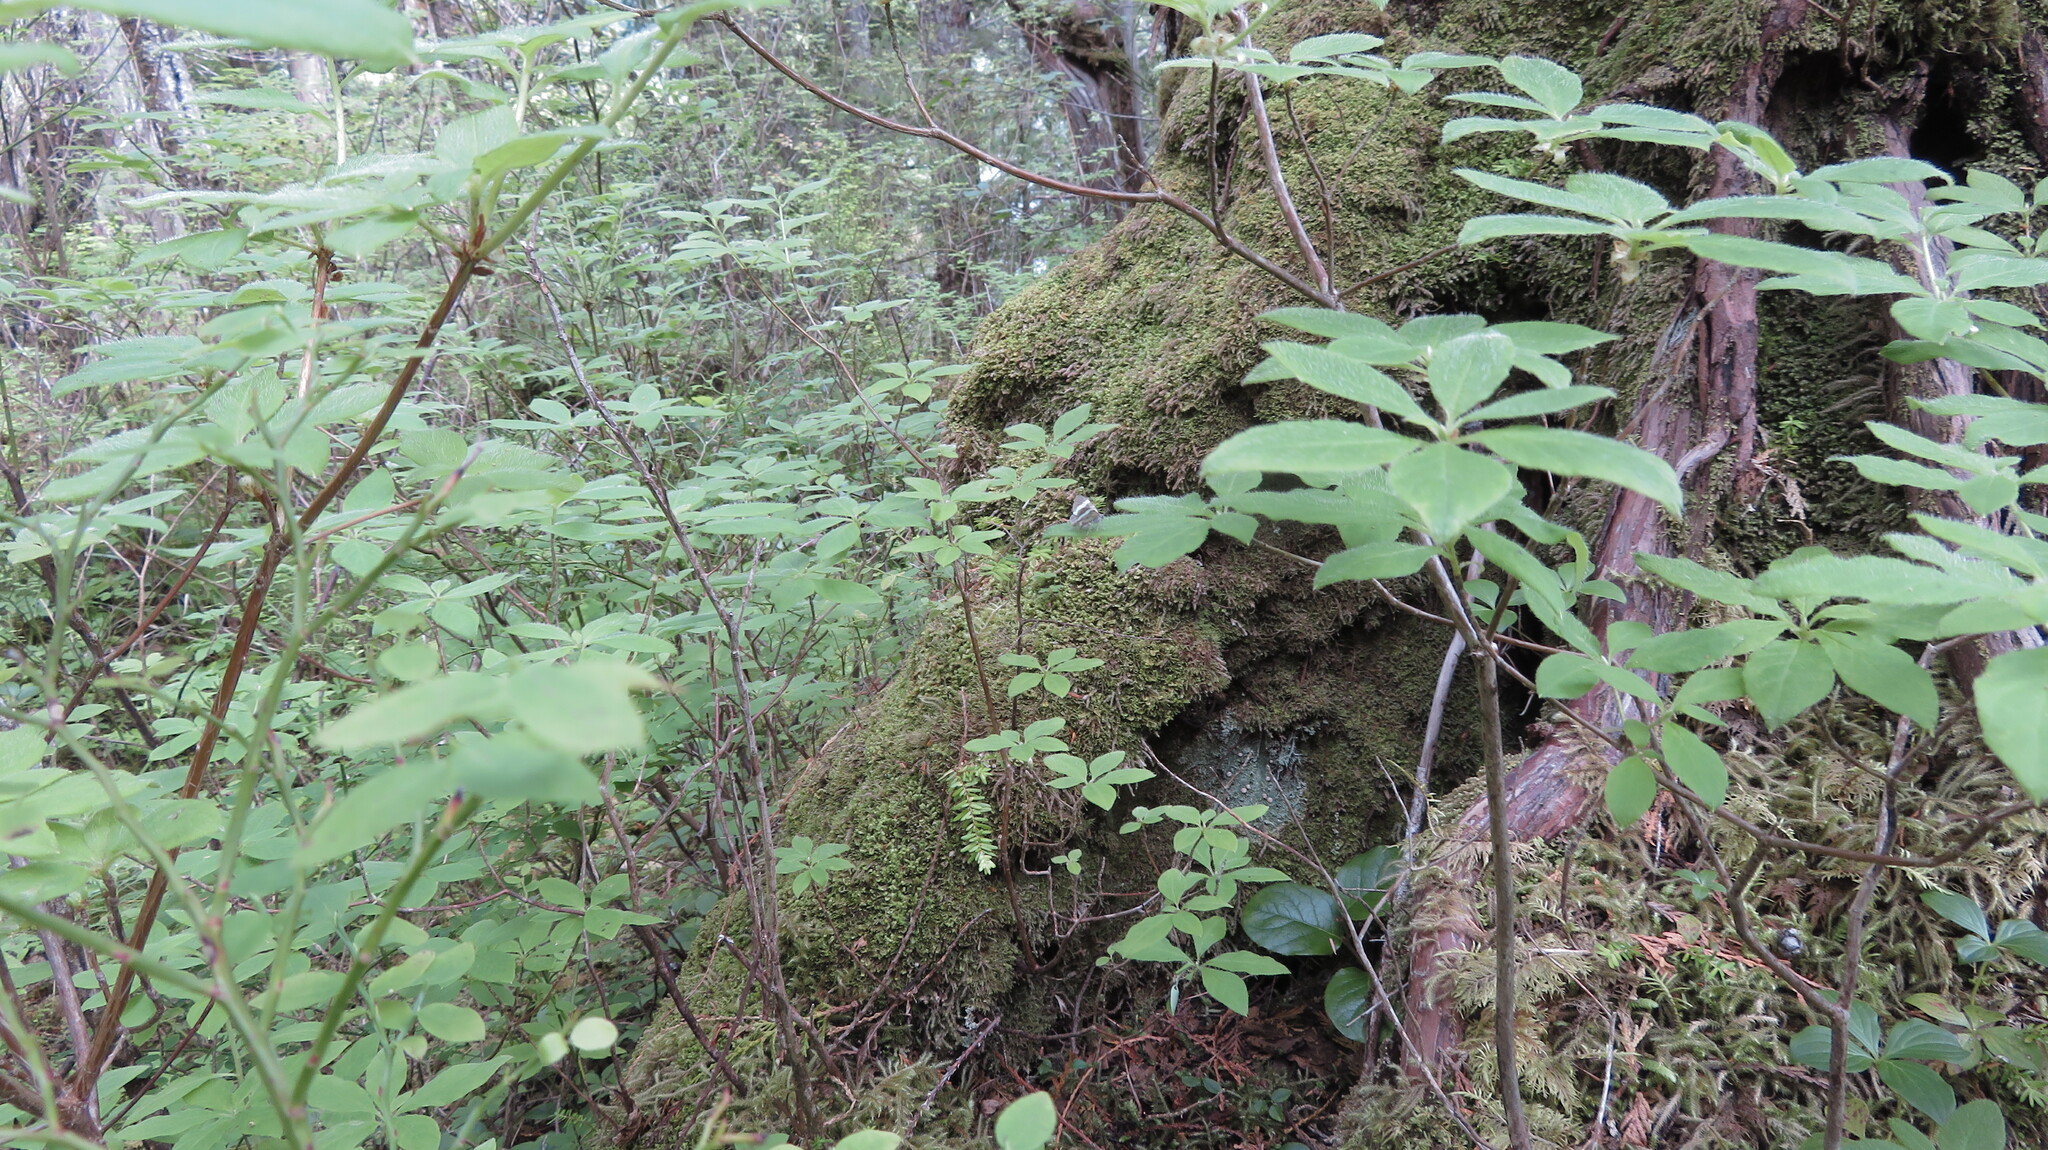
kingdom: Plantae
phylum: Tracheophyta
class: Magnoliopsida
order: Ericales
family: Ericaceae
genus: Rhododendron
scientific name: Rhododendron menziesii
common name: Pacific menziesia
